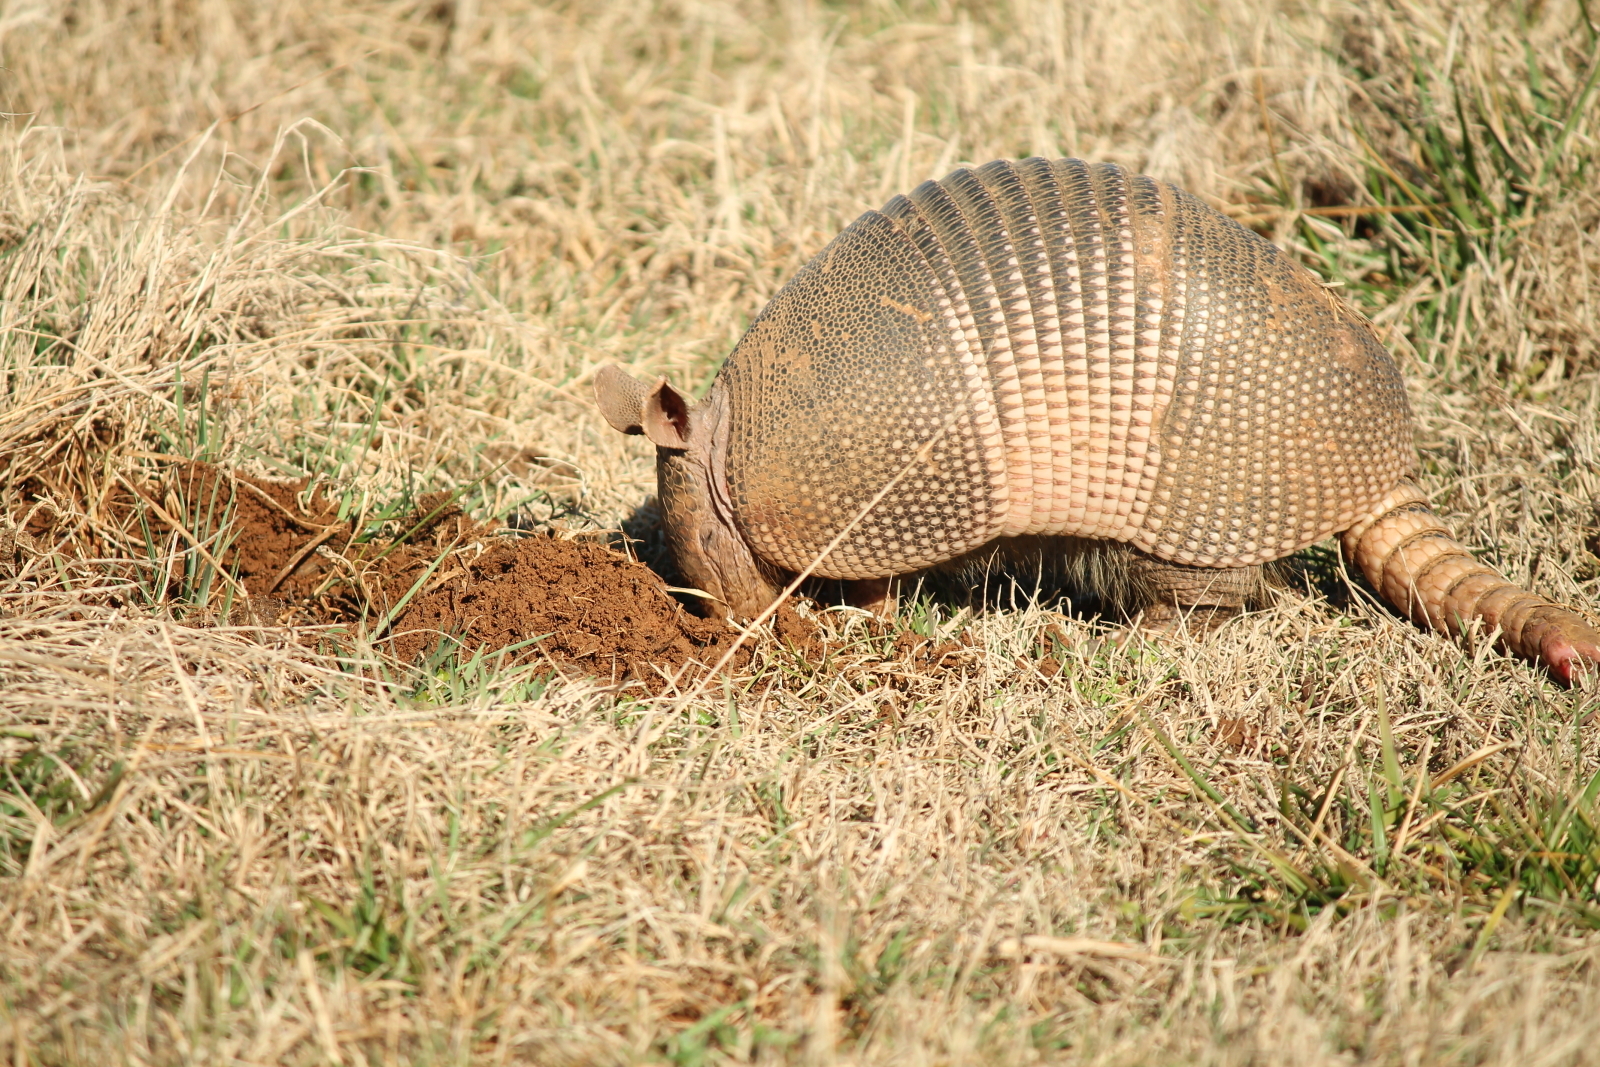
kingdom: Animalia
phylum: Chordata
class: Mammalia
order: Cingulata
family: Dasypodidae
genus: Dasypus
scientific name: Dasypus novemcinctus
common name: Nine-banded armadillo
